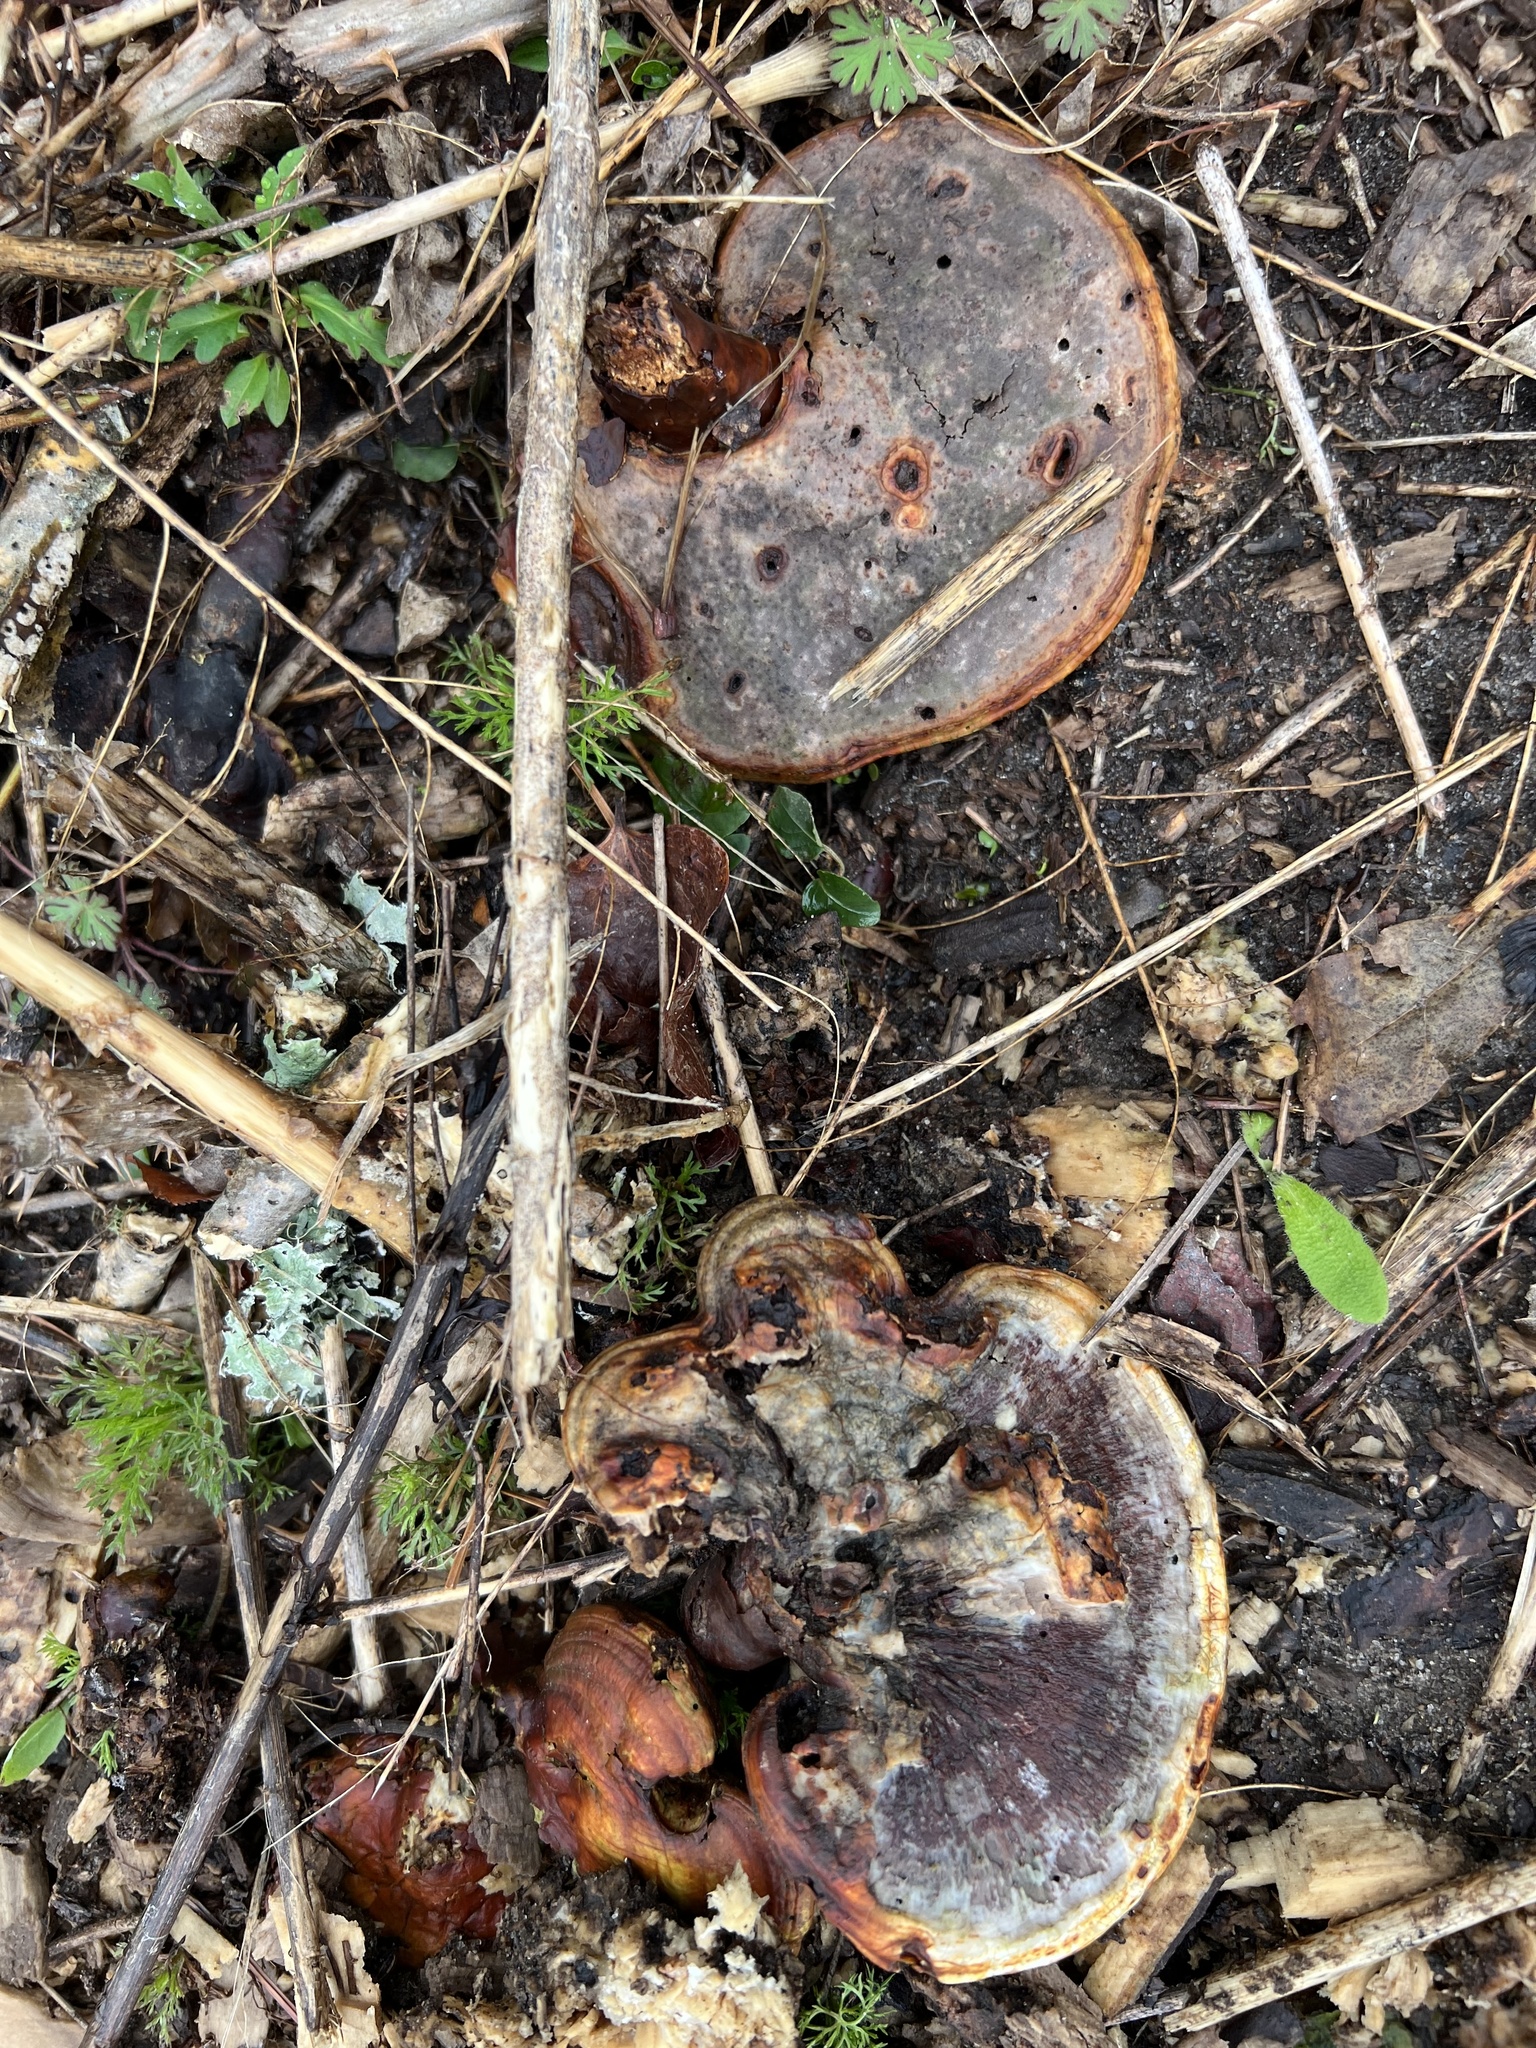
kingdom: Fungi
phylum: Basidiomycota
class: Agaricomycetes
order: Polyporales
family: Polyporaceae
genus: Ganoderma
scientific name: Ganoderma curtisii
